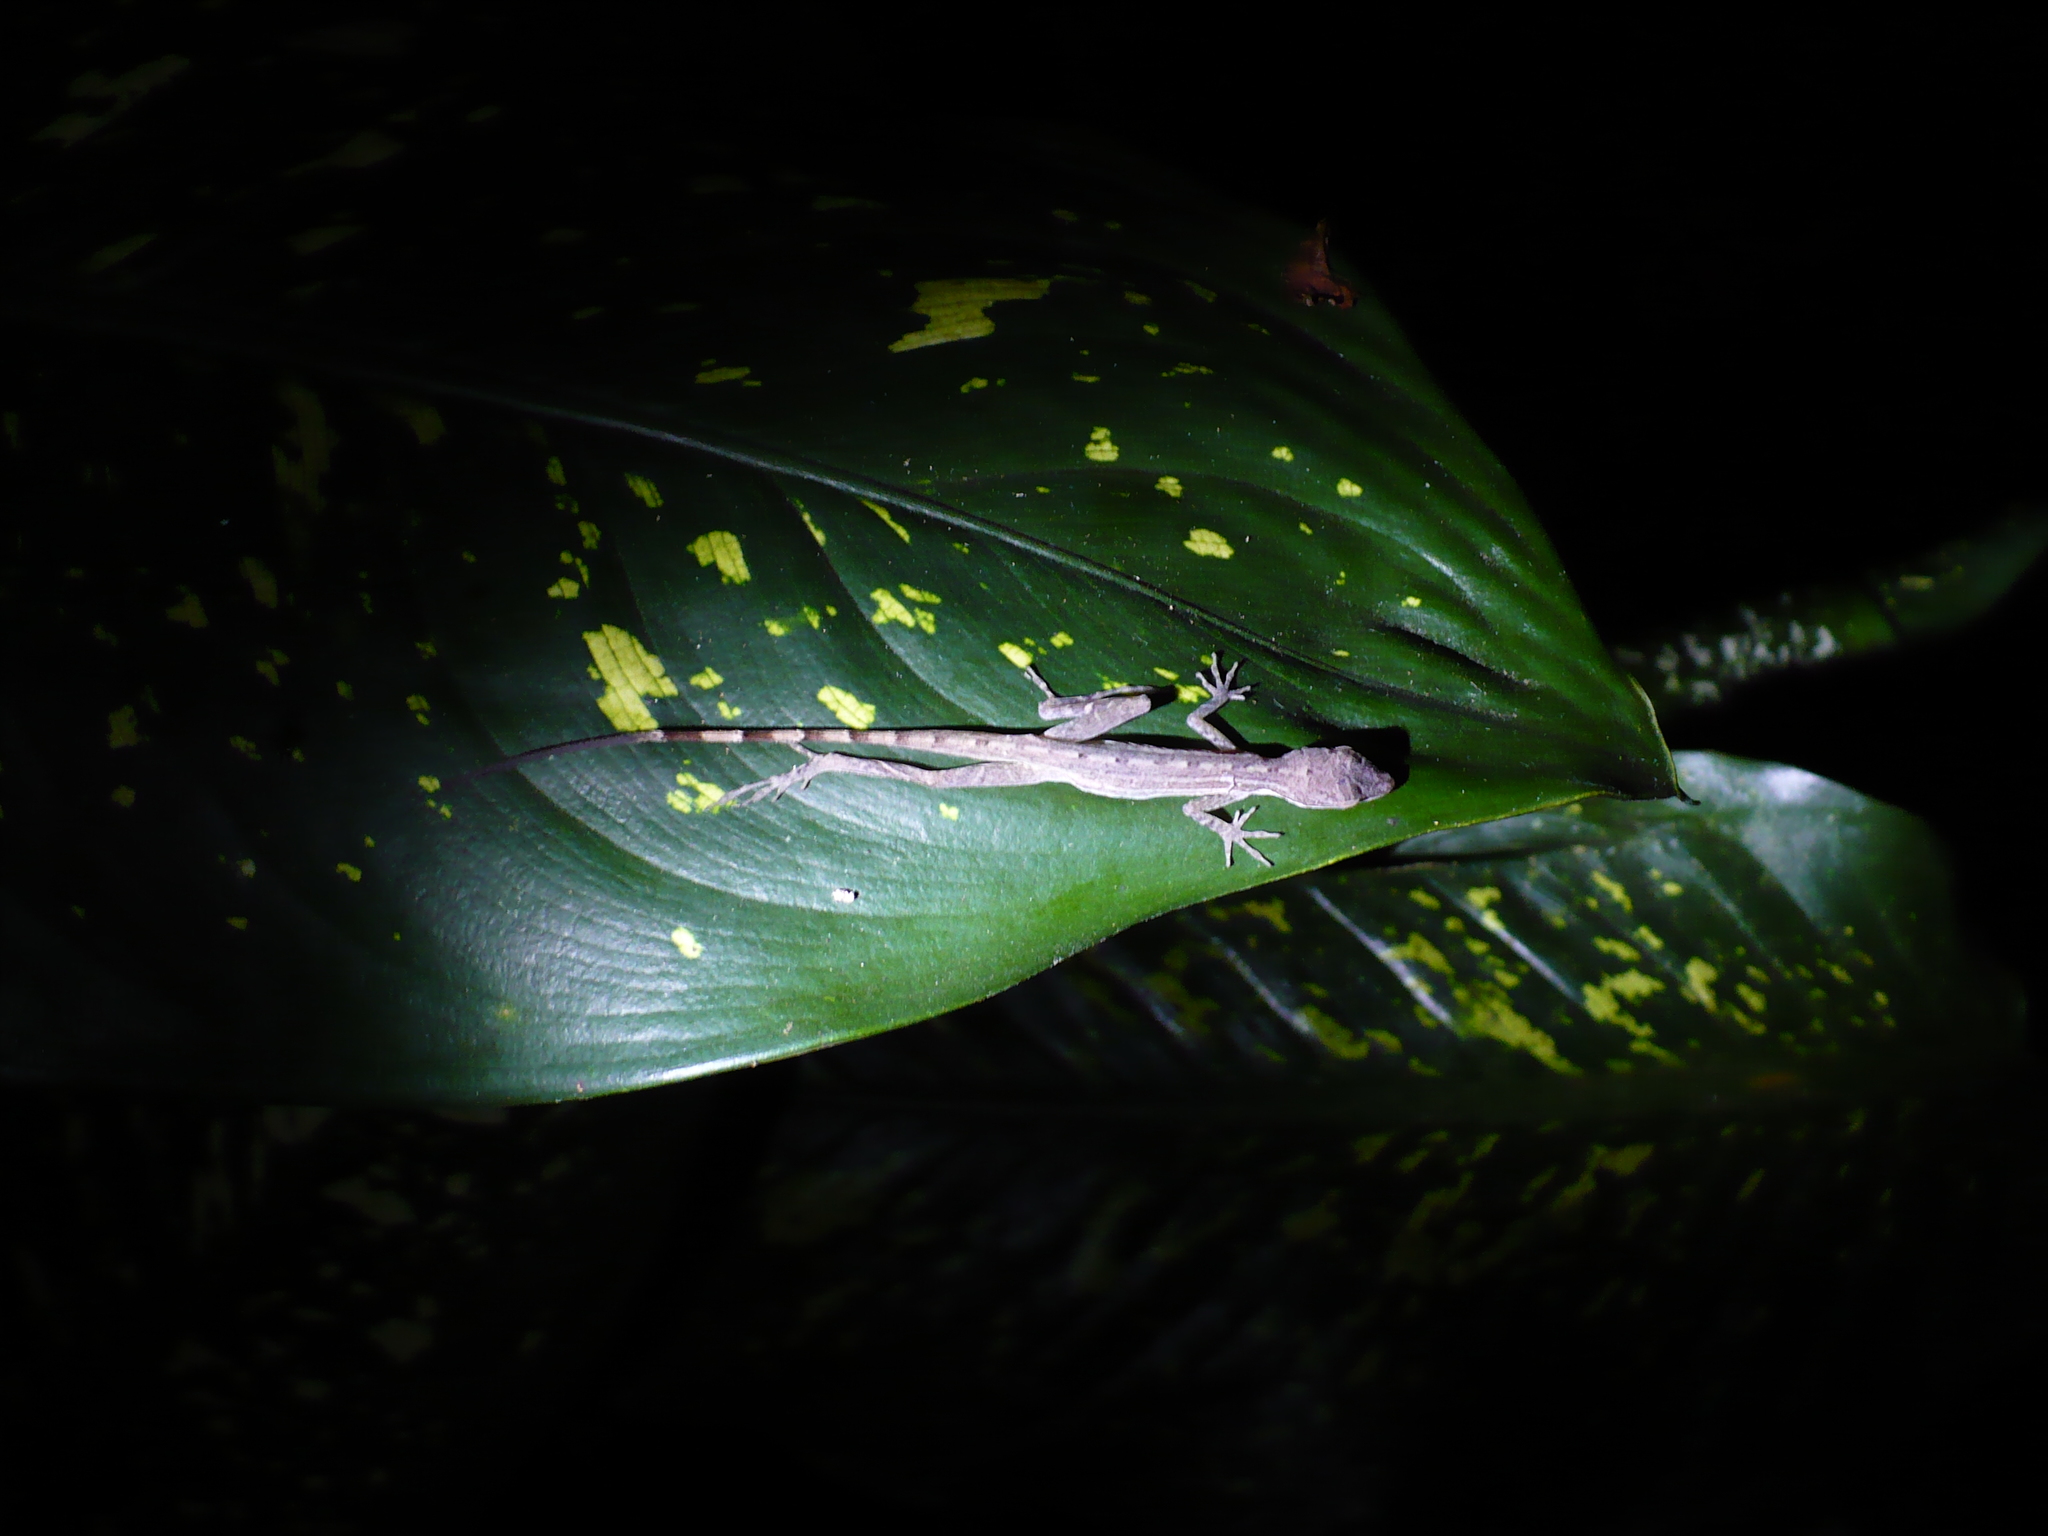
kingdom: Animalia
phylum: Chordata
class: Squamata
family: Dactyloidae
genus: Anolis
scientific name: Anolis limifrons
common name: Border anole
